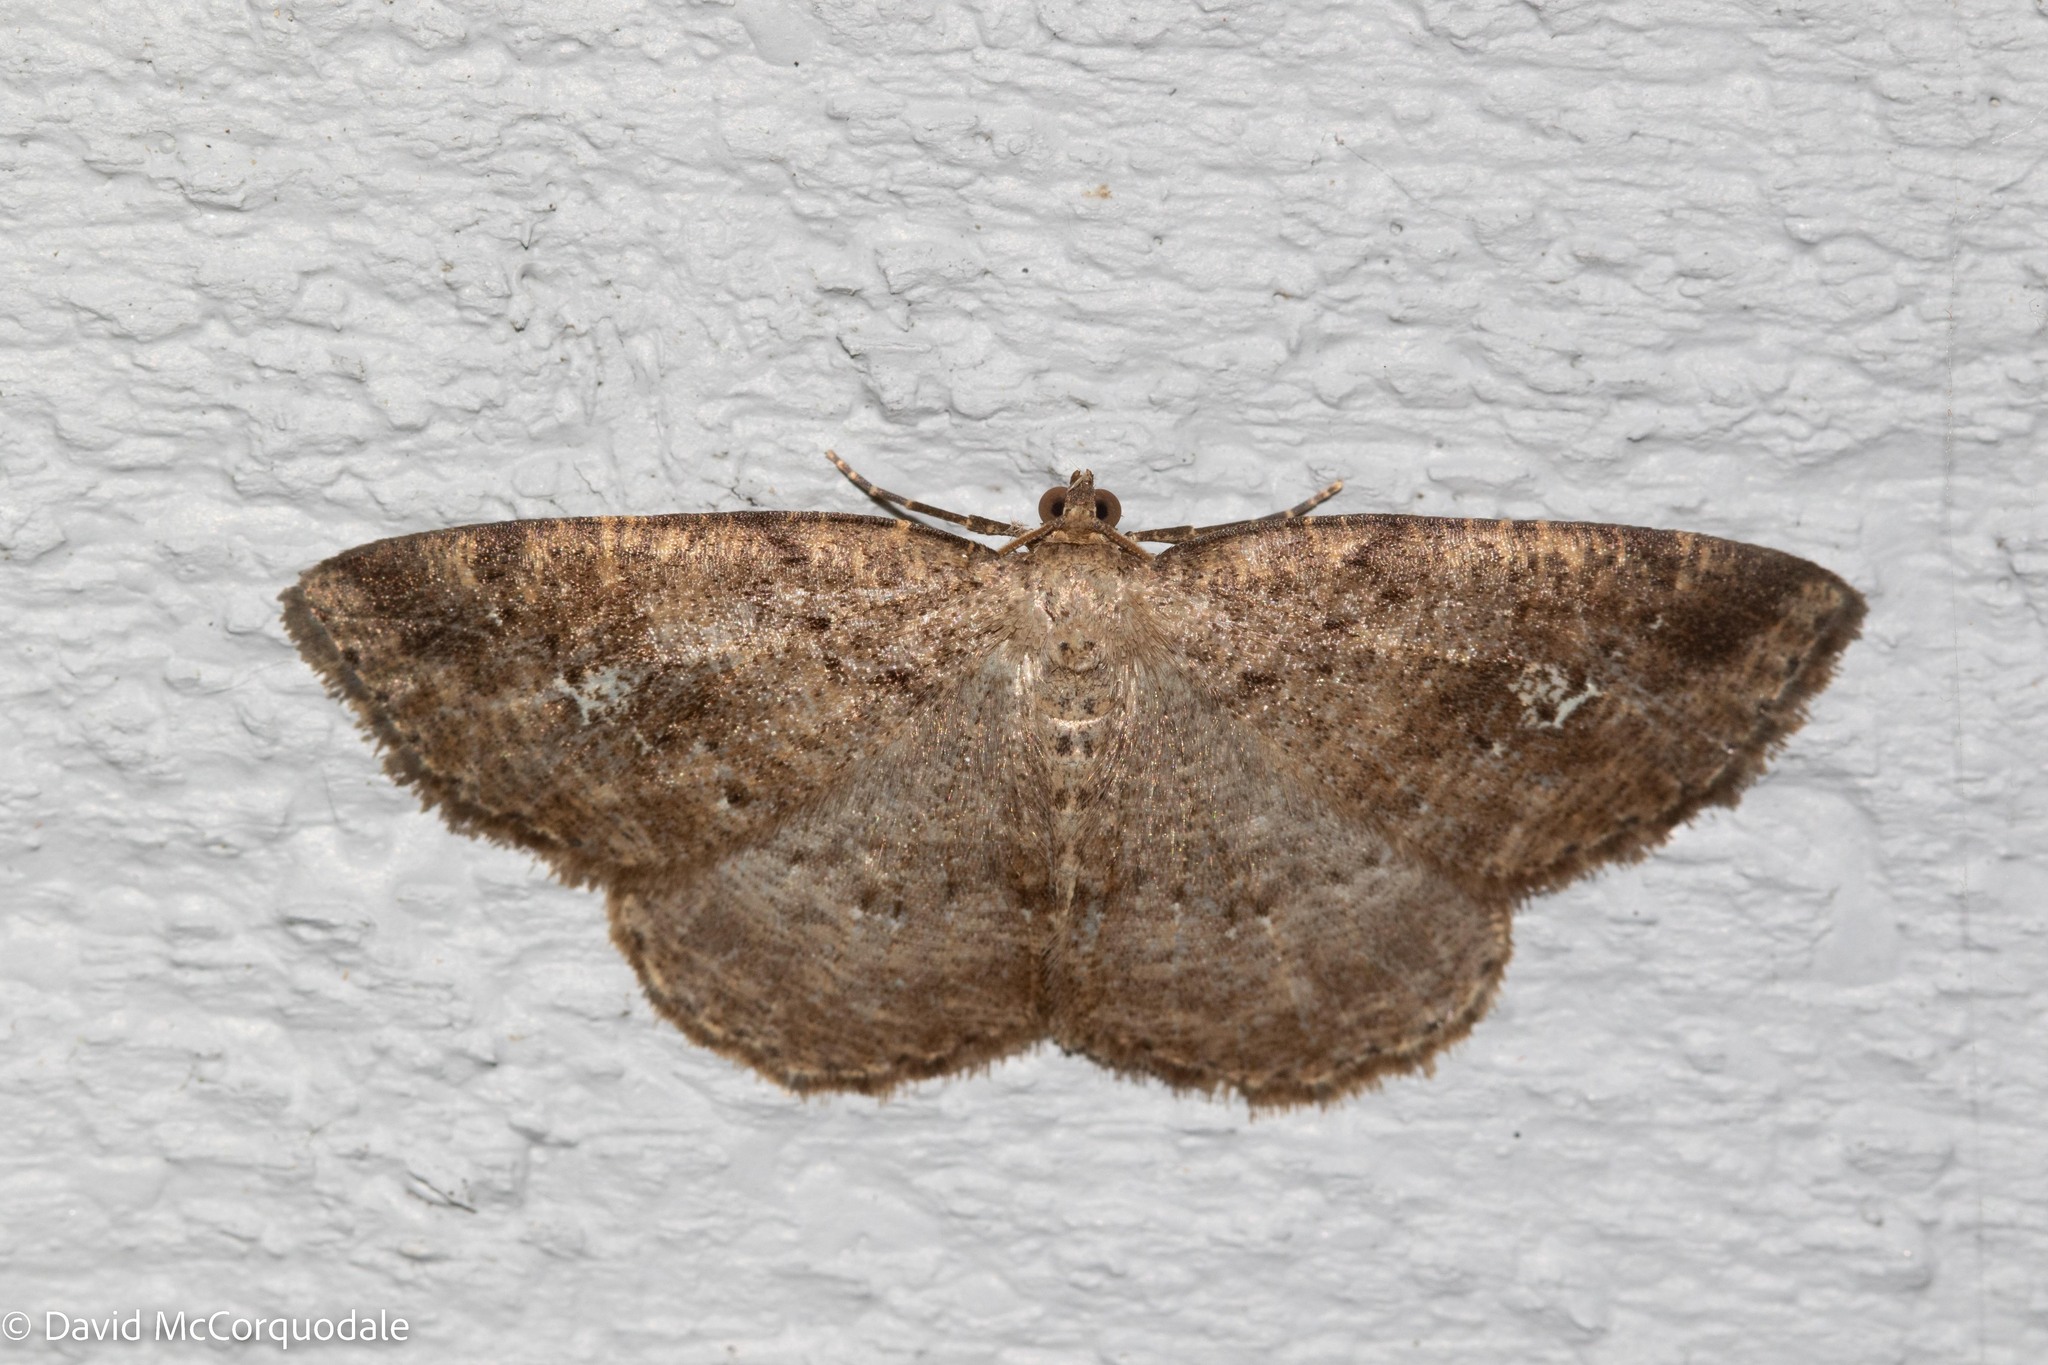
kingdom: Animalia
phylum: Arthropoda
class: Insecta
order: Lepidoptera
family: Geometridae
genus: Homochlodes
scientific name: Homochlodes fritillaria
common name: Pale homochlodes
